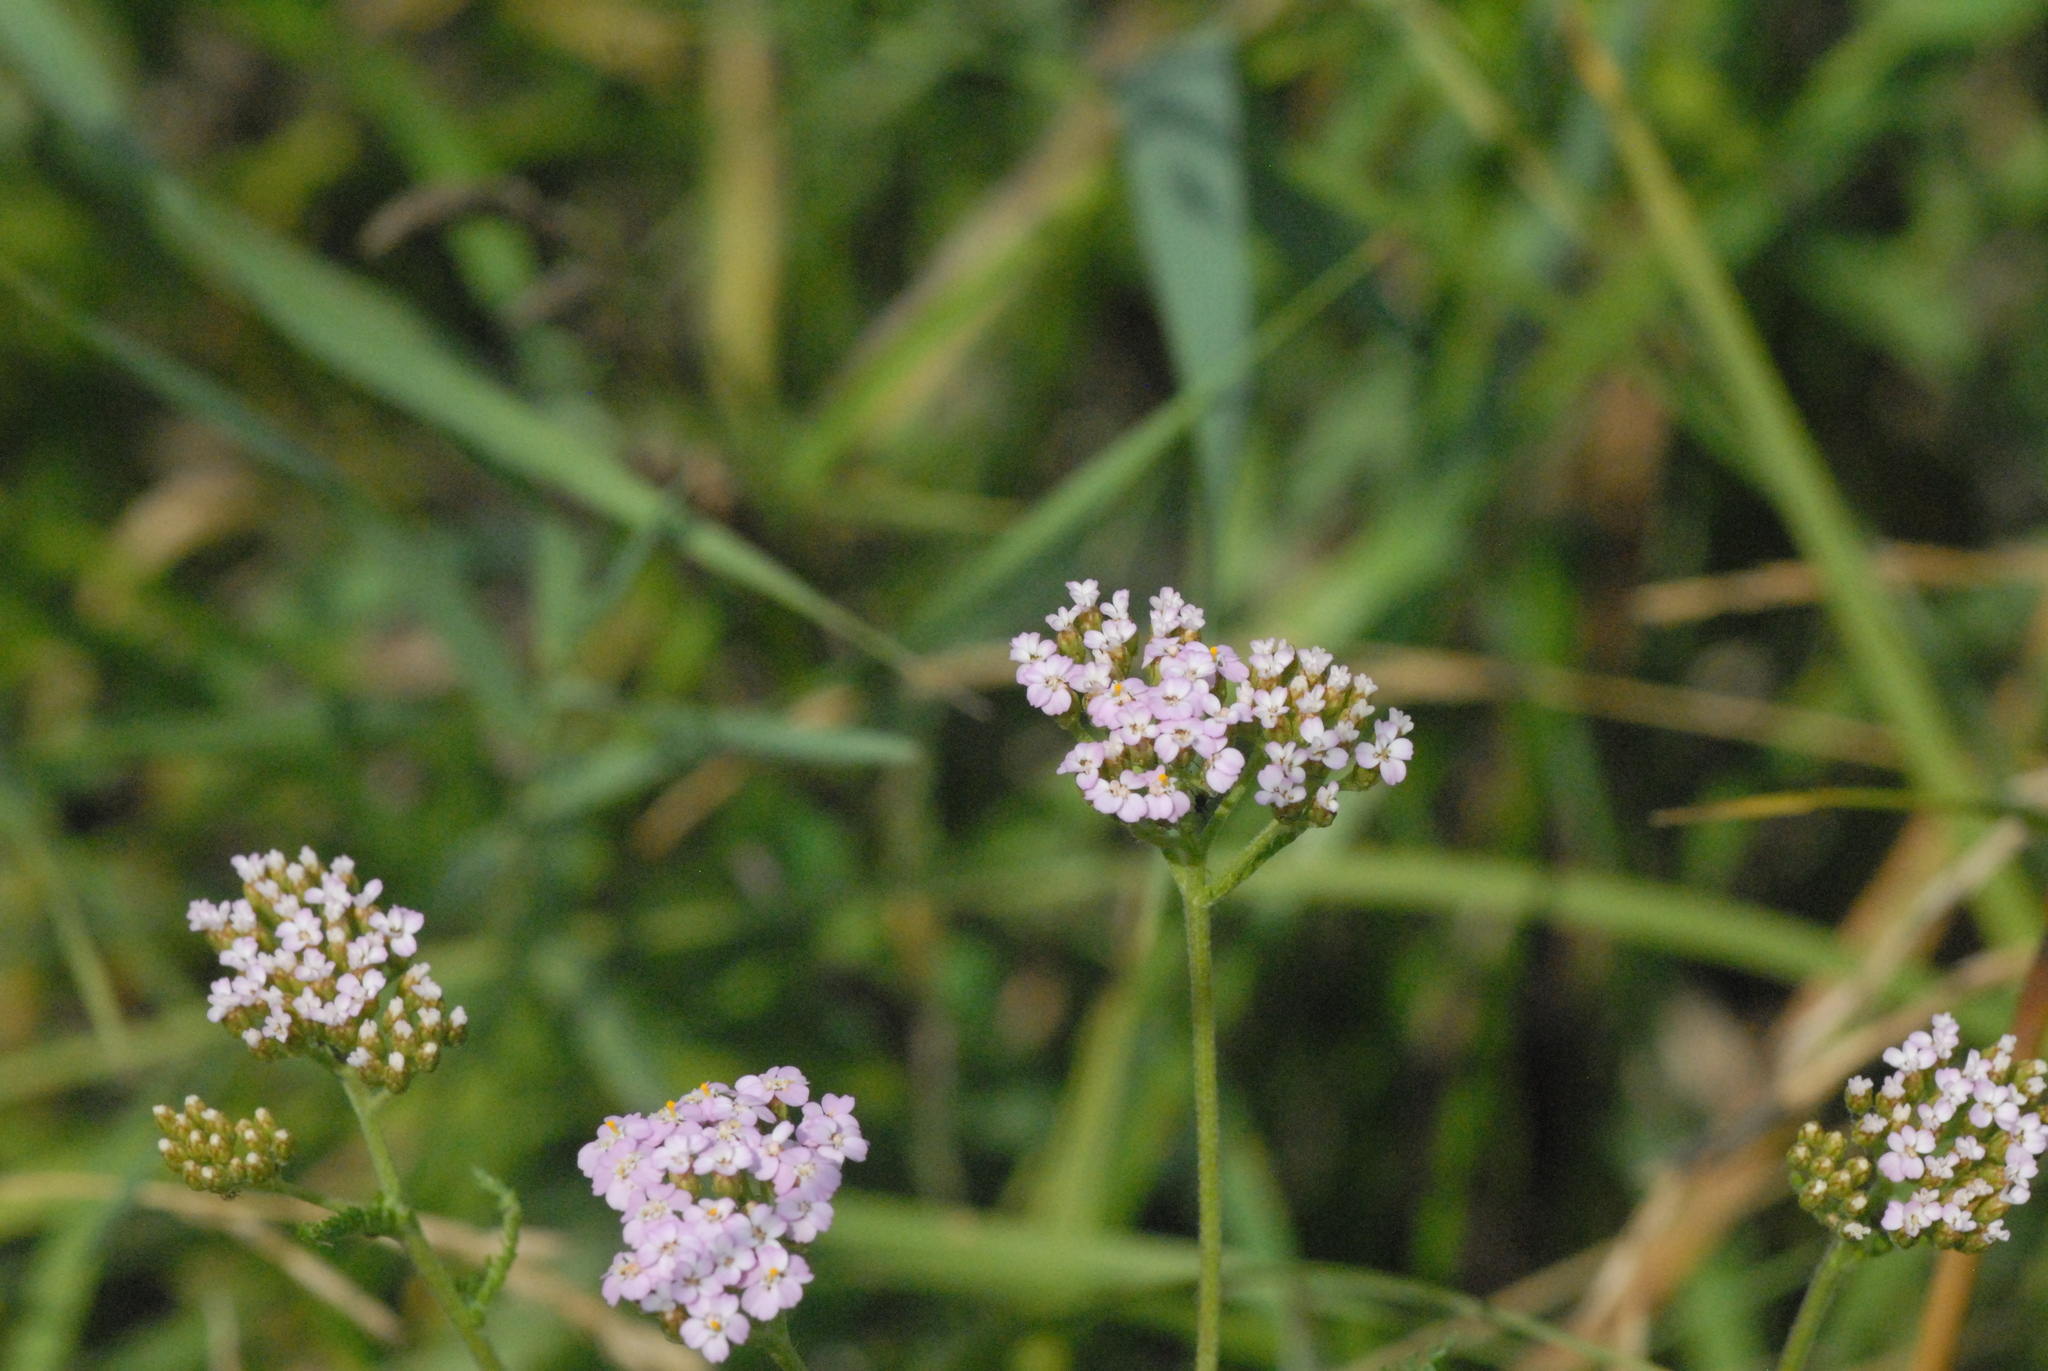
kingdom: Plantae
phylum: Tracheophyta
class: Magnoliopsida
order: Asterales
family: Asteraceae
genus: Achillea
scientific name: Achillea millefolium
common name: Yarrow
